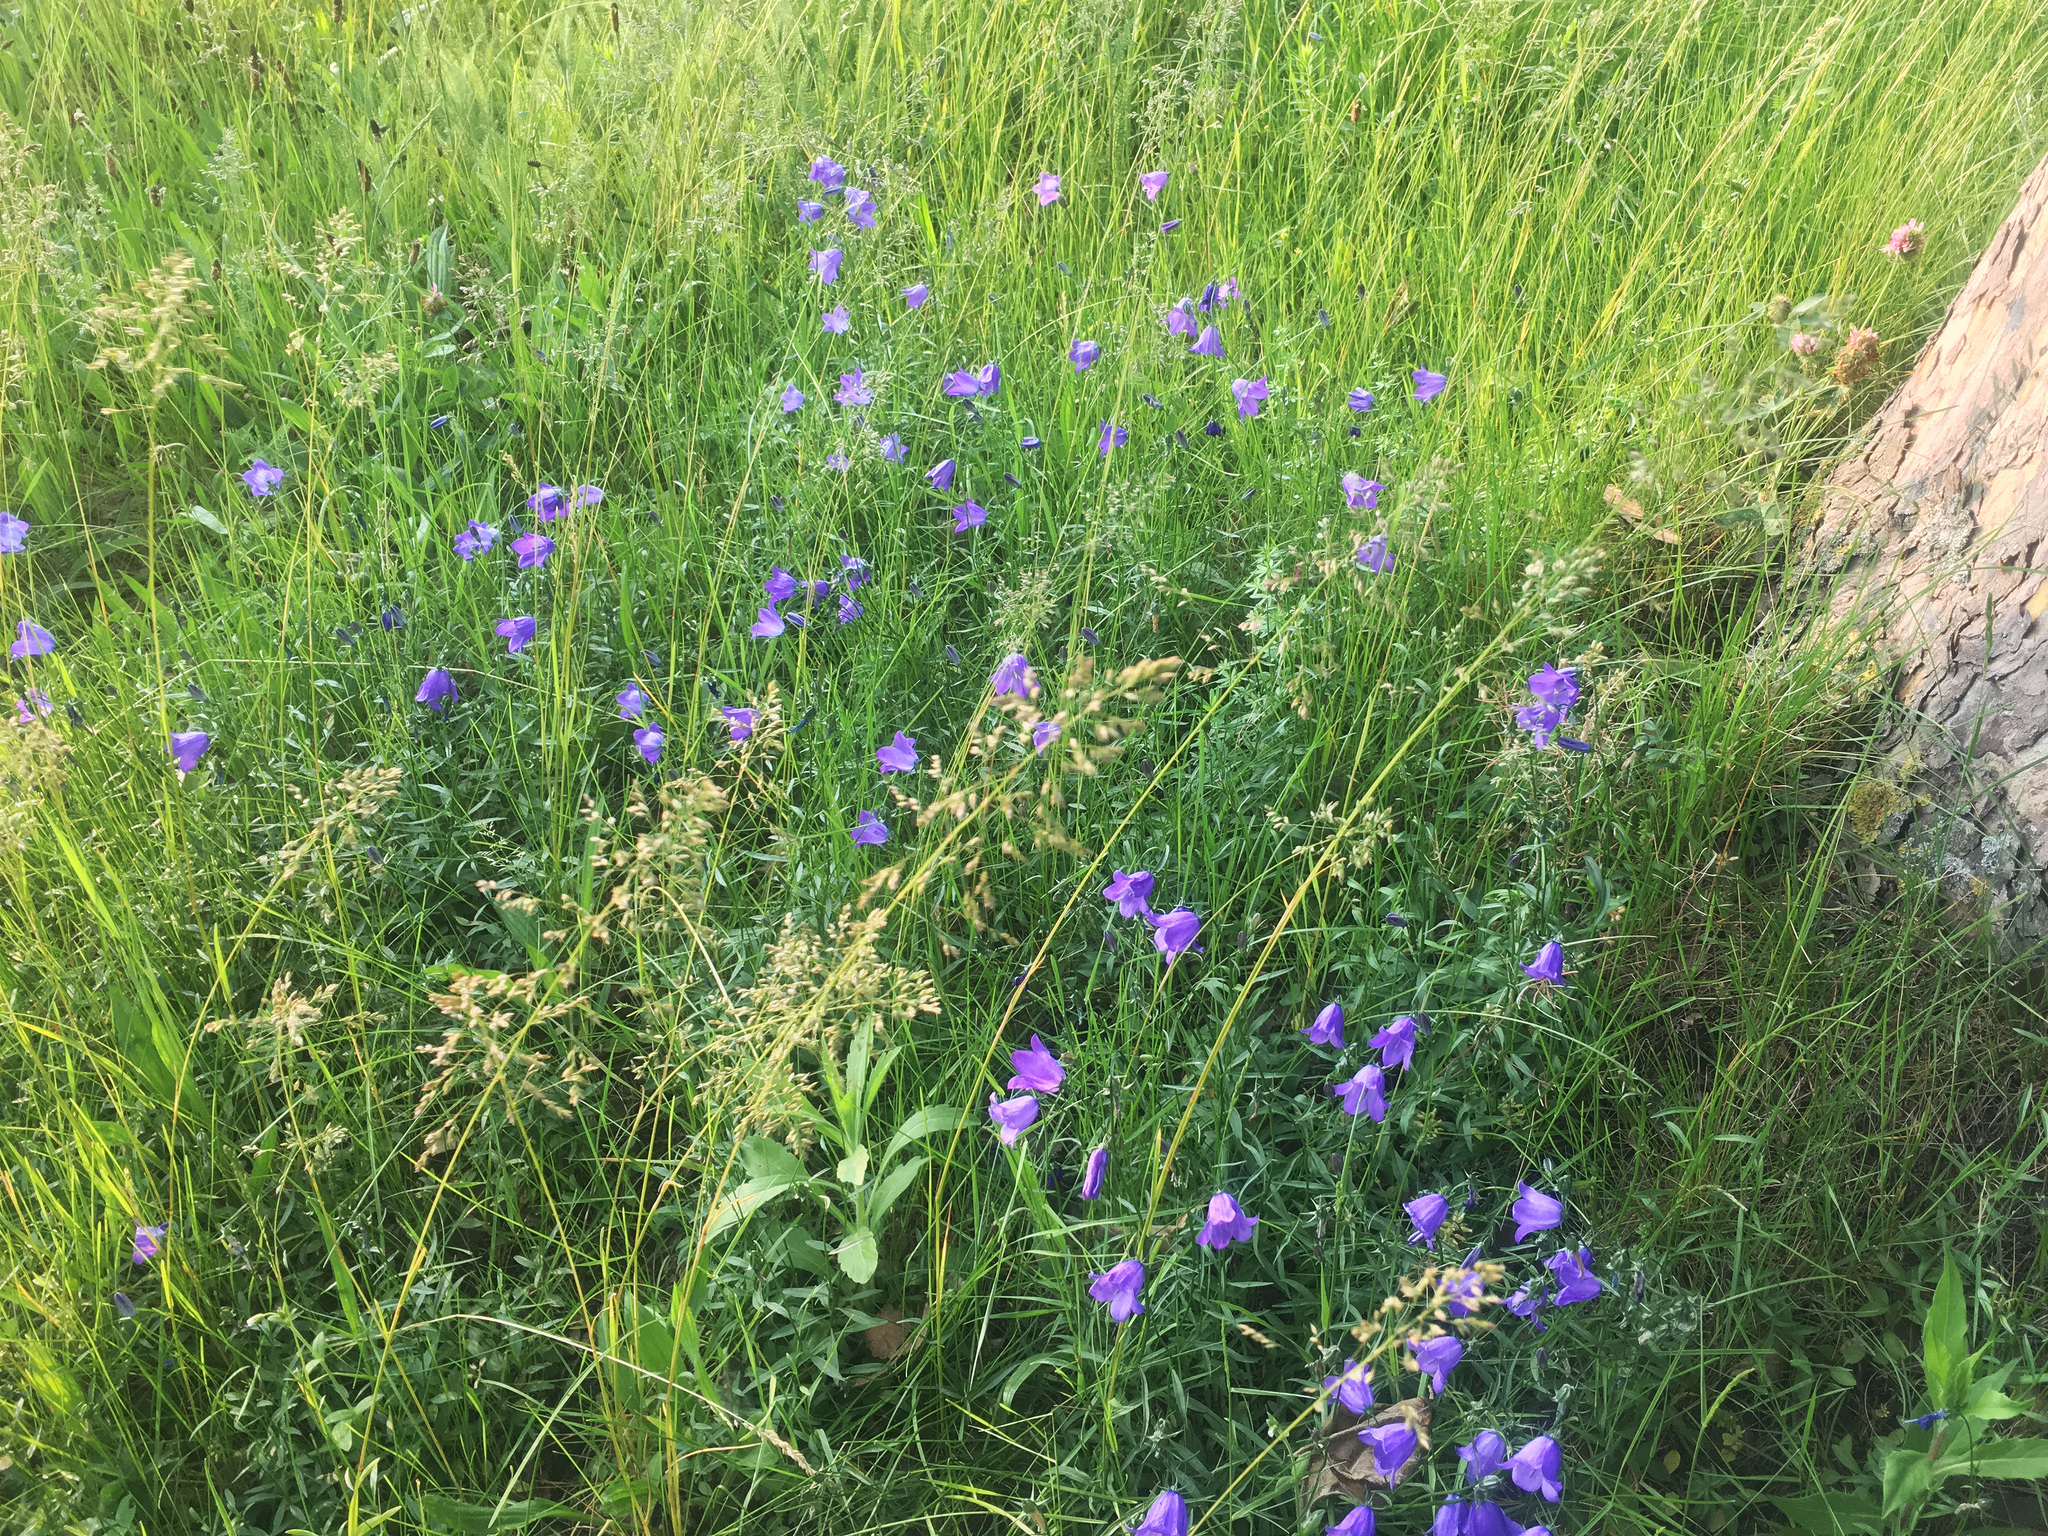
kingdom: Plantae
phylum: Tracheophyta
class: Magnoliopsida
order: Asterales
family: Campanulaceae
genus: Campanula
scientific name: Campanula rotundifolia
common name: Harebell
